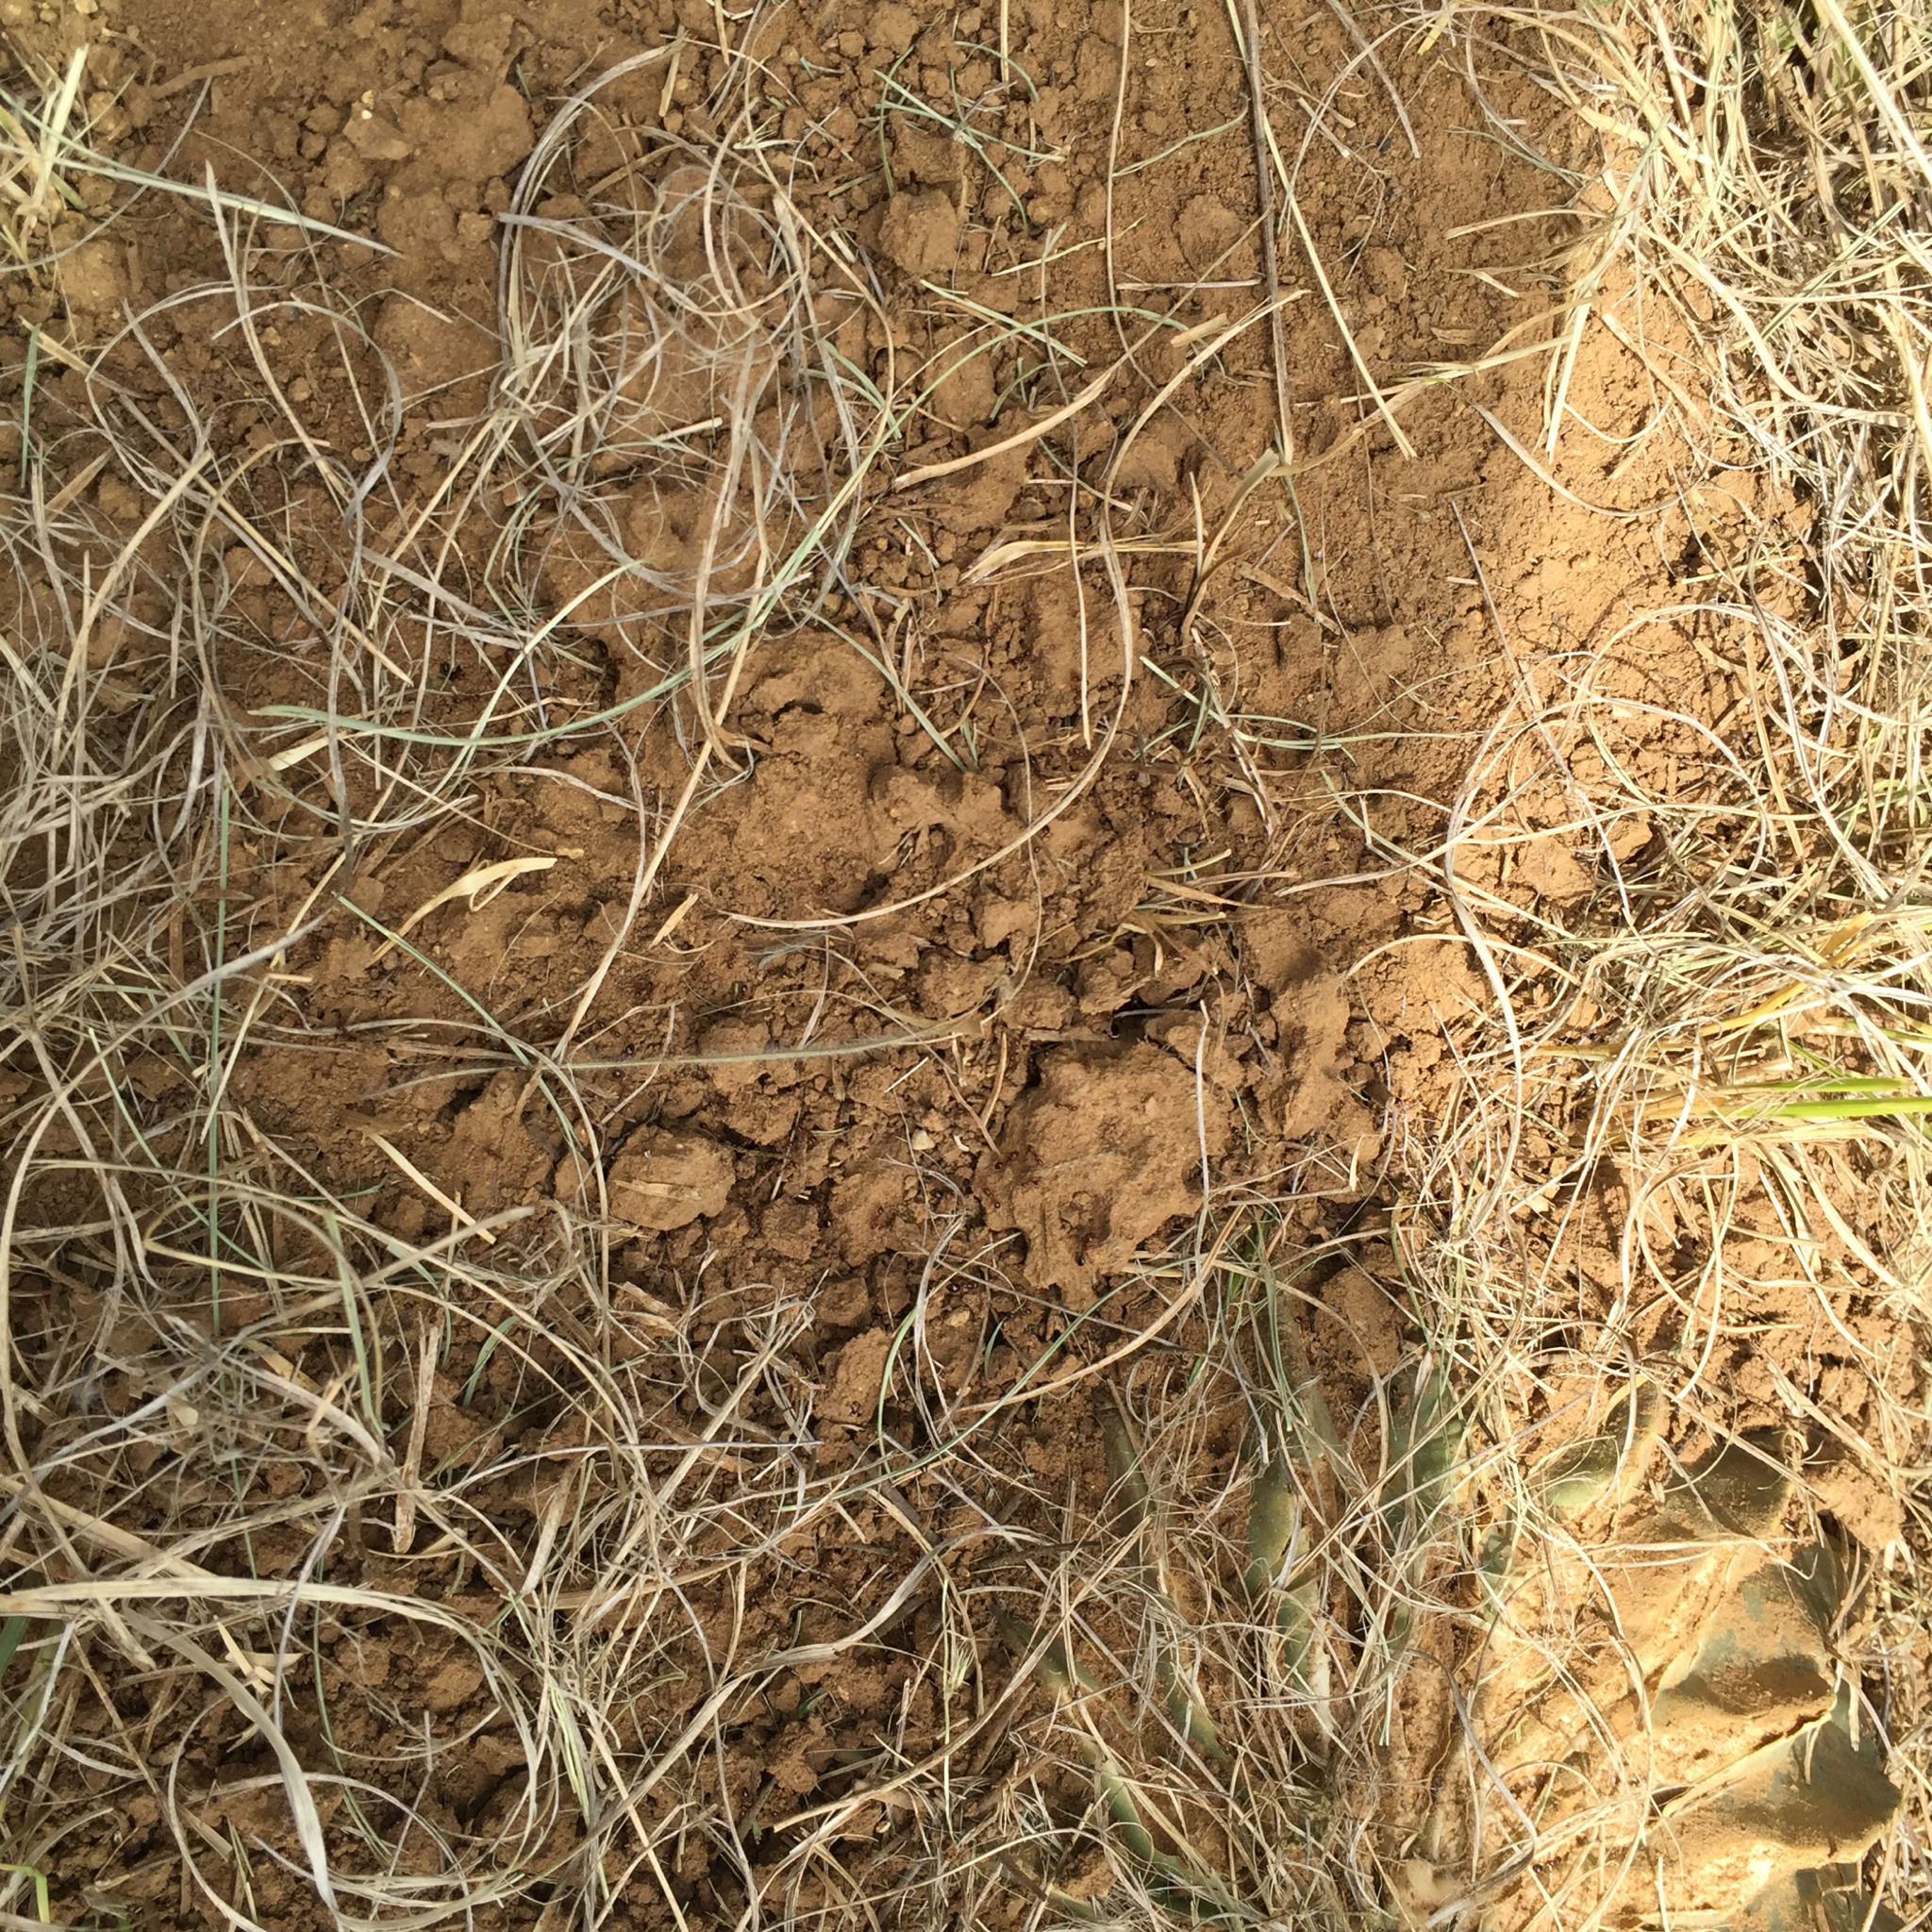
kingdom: Animalia
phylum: Arthropoda
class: Insecta
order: Hymenoptera
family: Formicidae
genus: Solenopsis
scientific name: Solenopsis invicta
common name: Red imported fire ant
